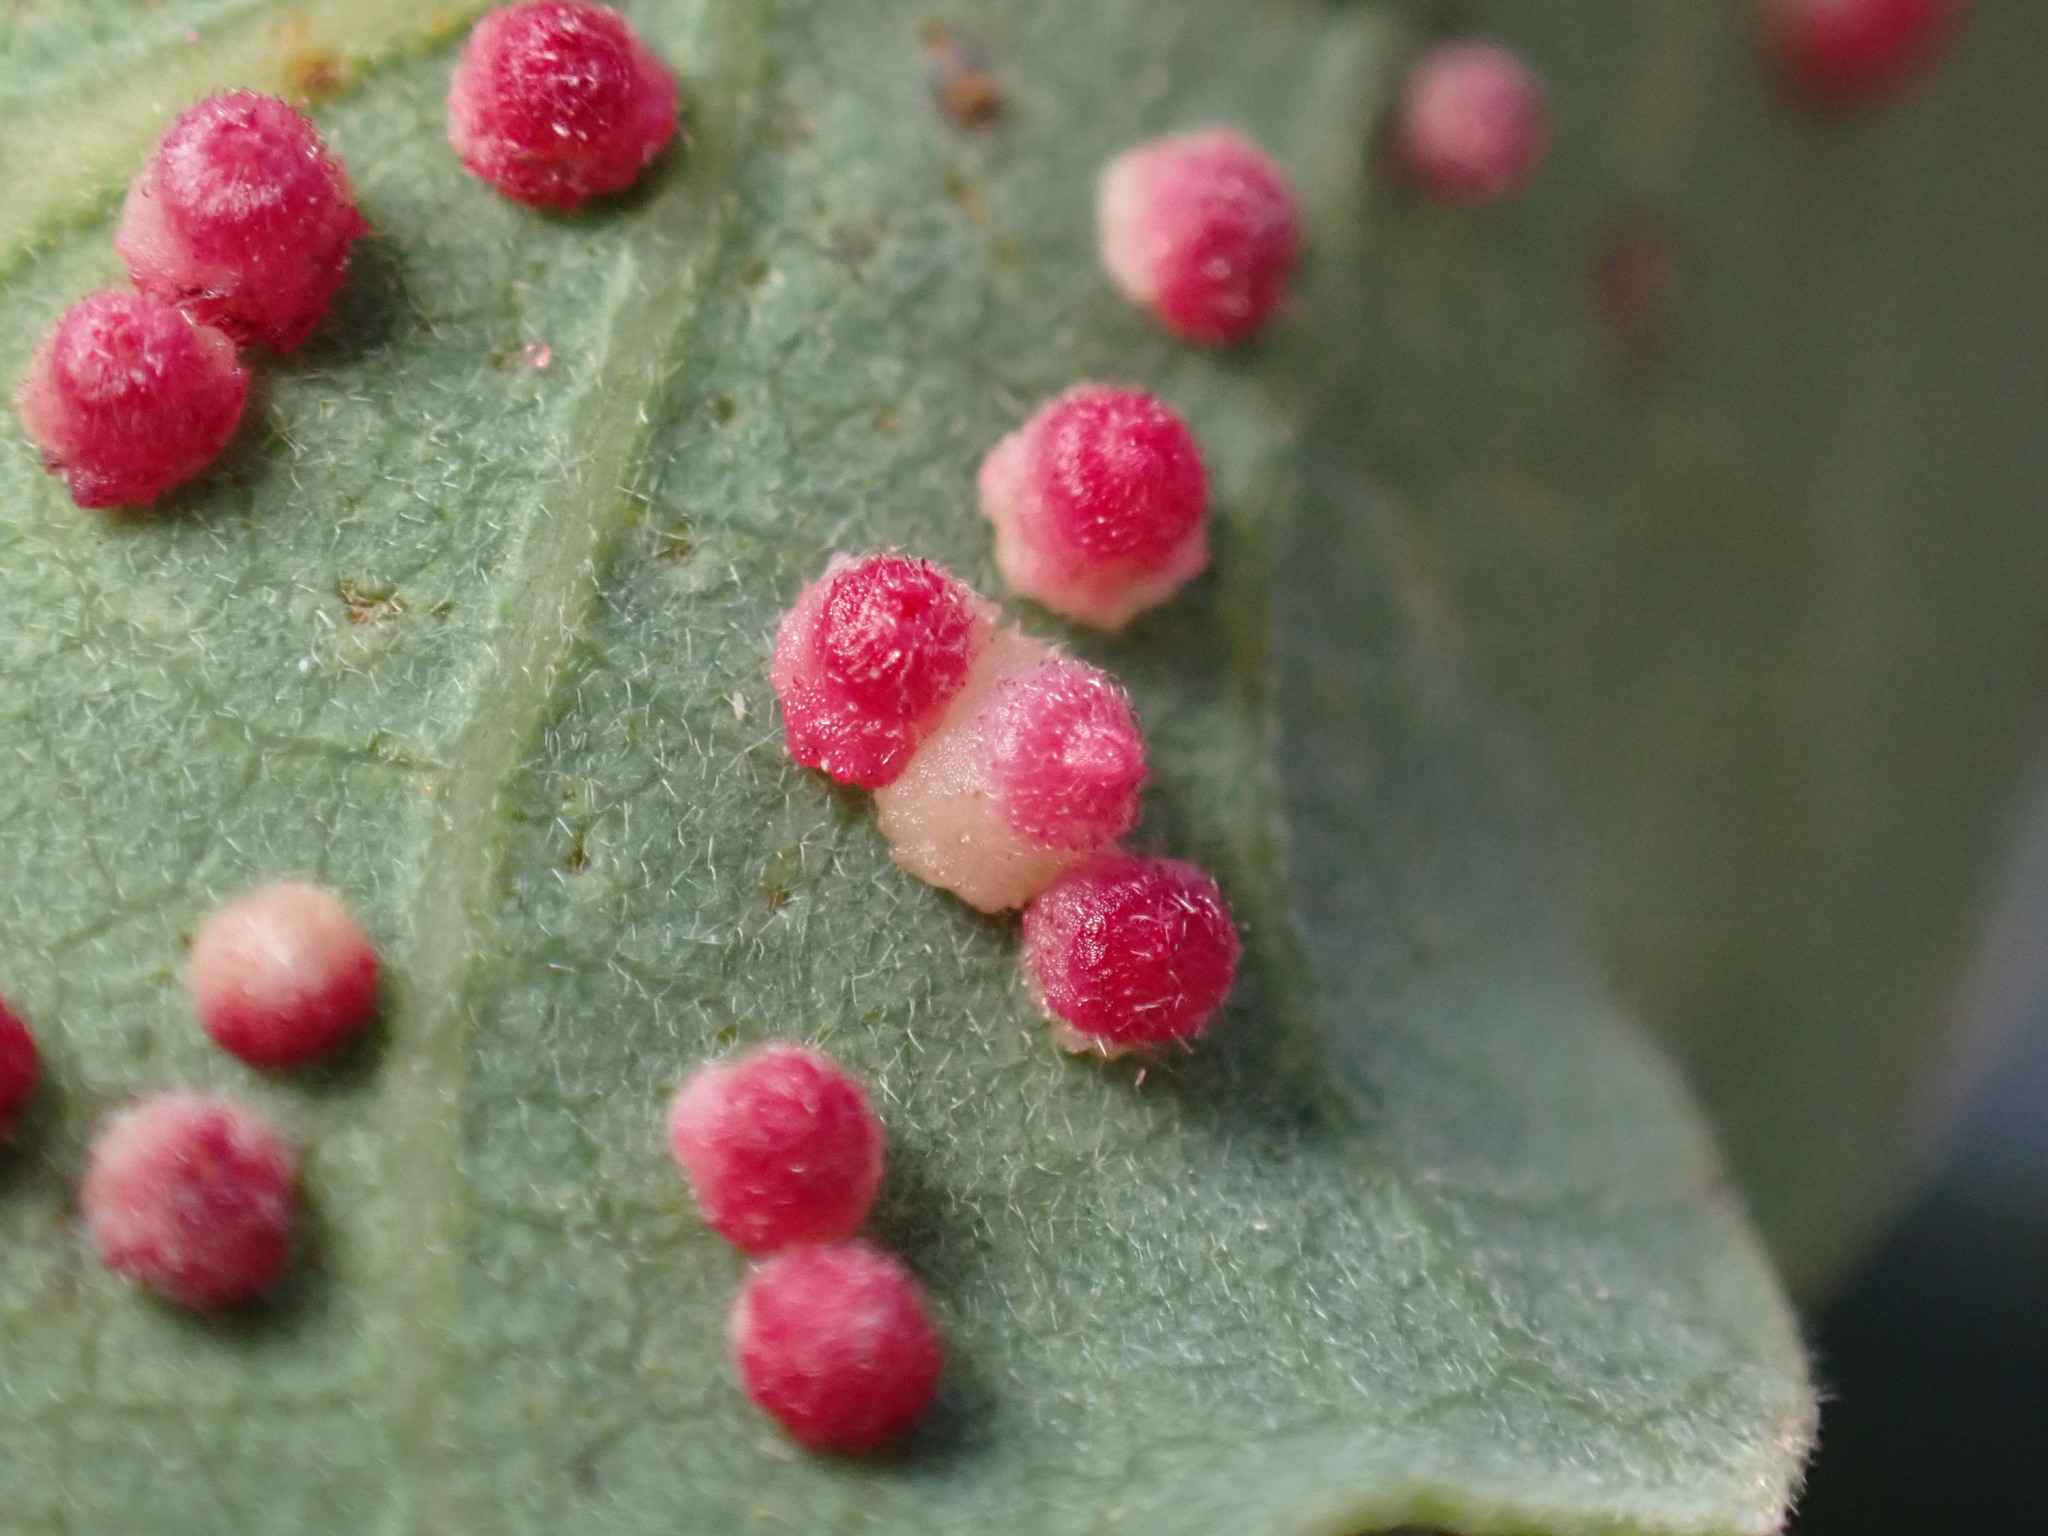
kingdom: Animalia
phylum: Arthropoda
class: Insecta
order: Hymenoptera
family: Cynipidae
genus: Andricus
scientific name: Andricus
